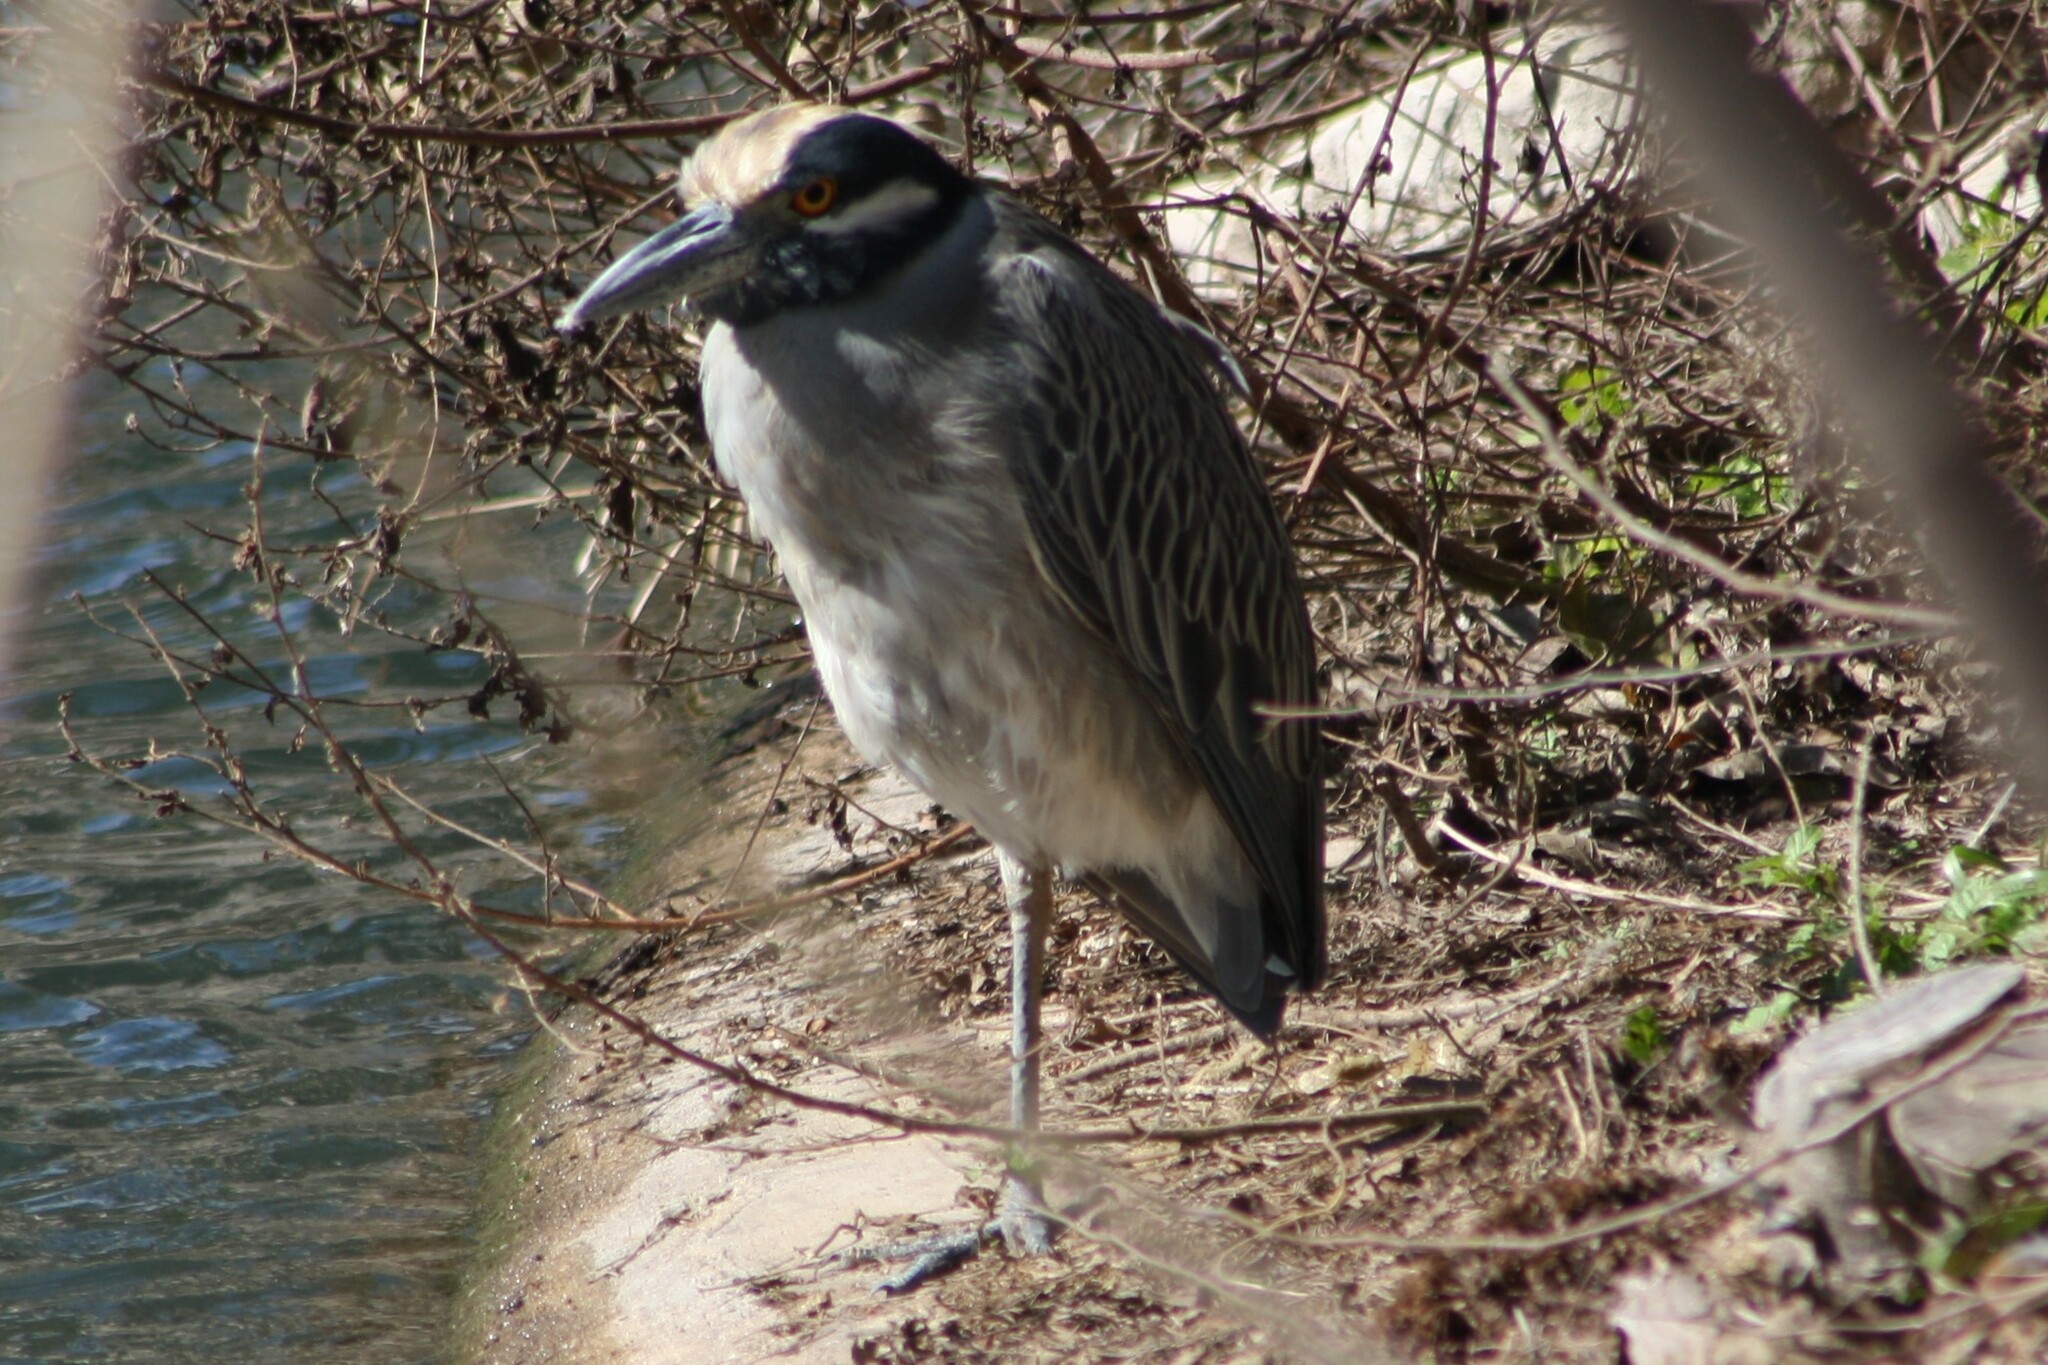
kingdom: Animalia
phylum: Chordata
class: Aves
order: Pelecaniformes
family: Ardeidae
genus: Nyctanassa
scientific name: Nyctanassa violacea
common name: Yellow-crowned night heron
